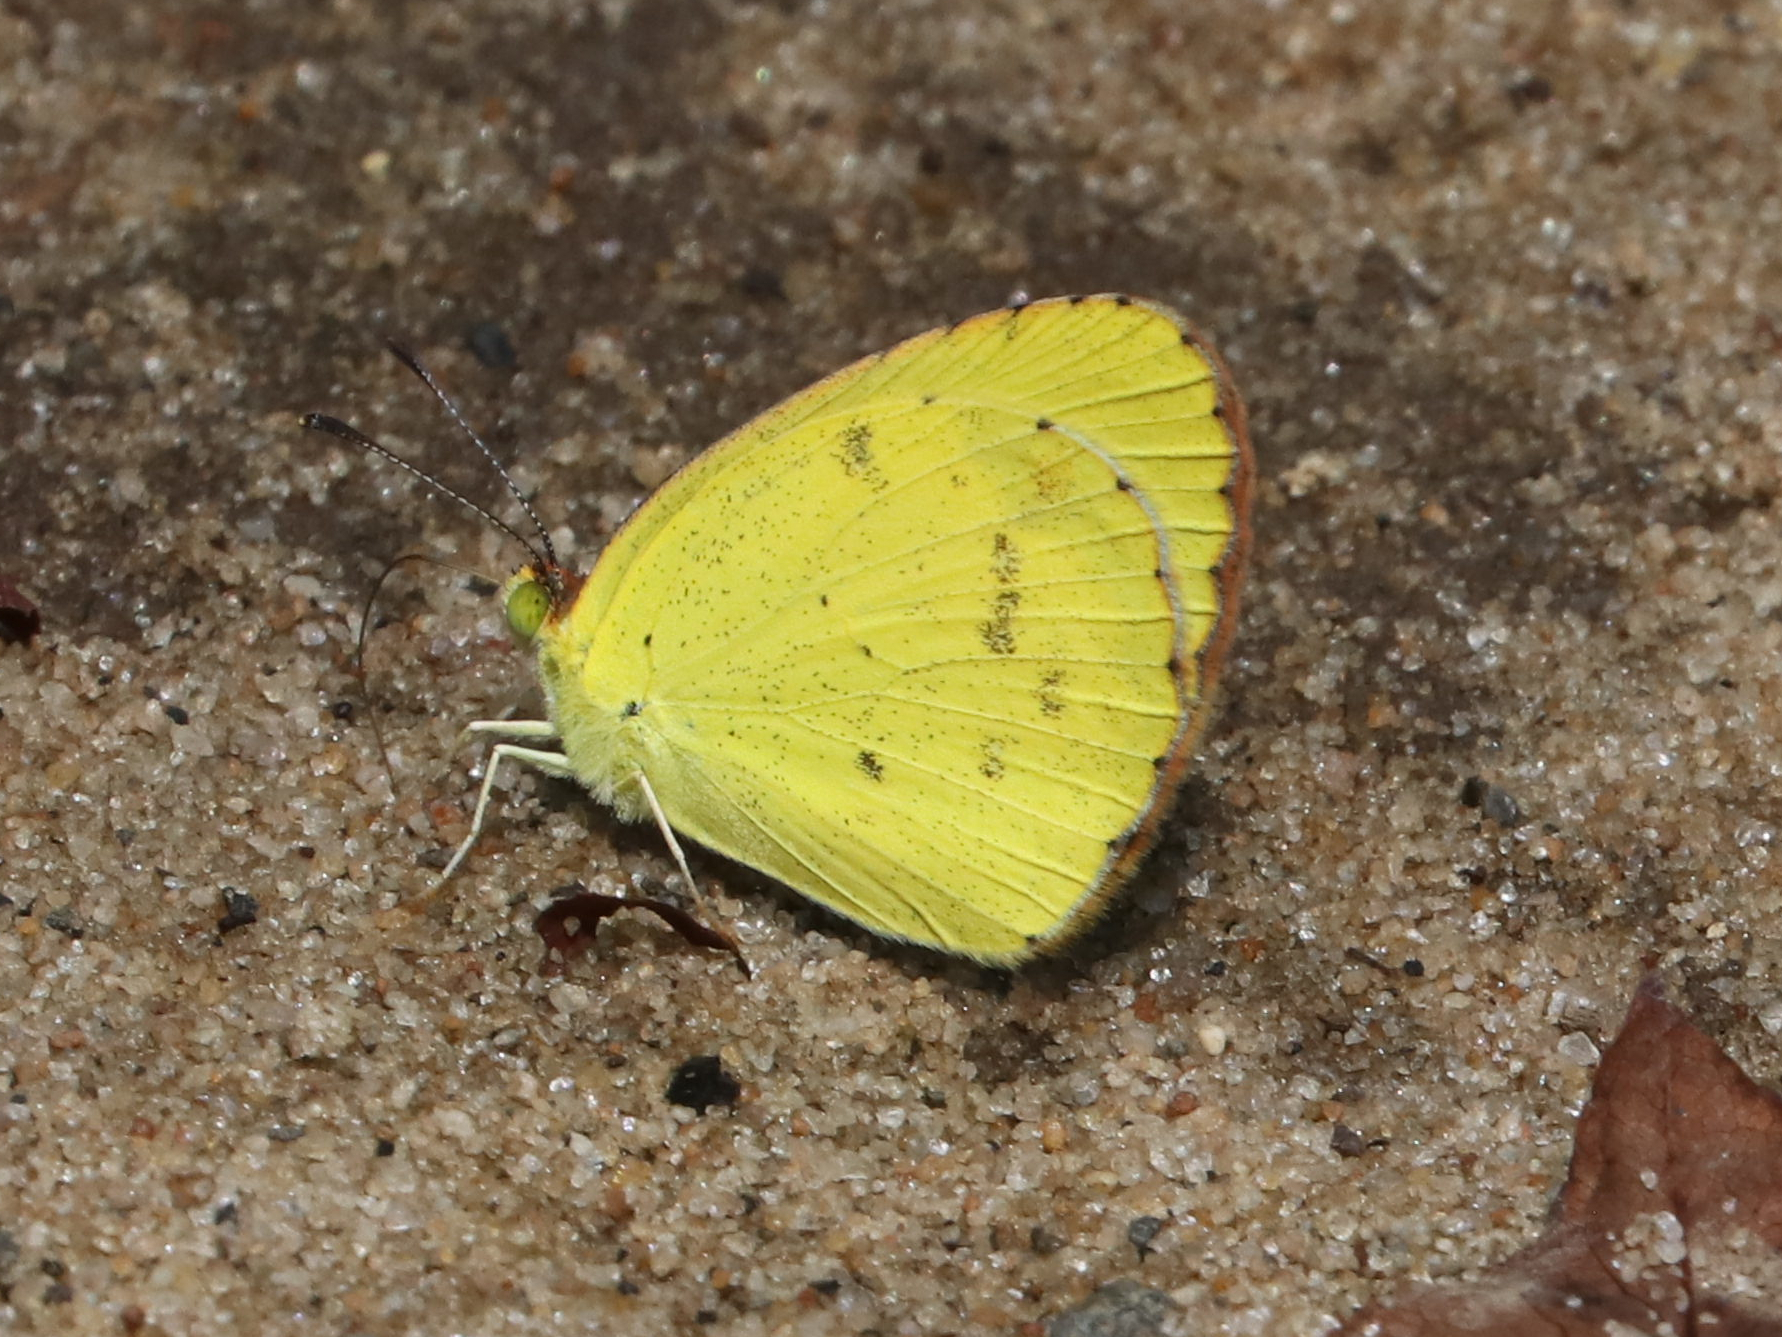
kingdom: Animalia
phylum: Arthropoda
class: Insecta
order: Lepidoptera
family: Pieridae
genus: Pyrisitia
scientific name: Pyrisitia lisa
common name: Little yellow
